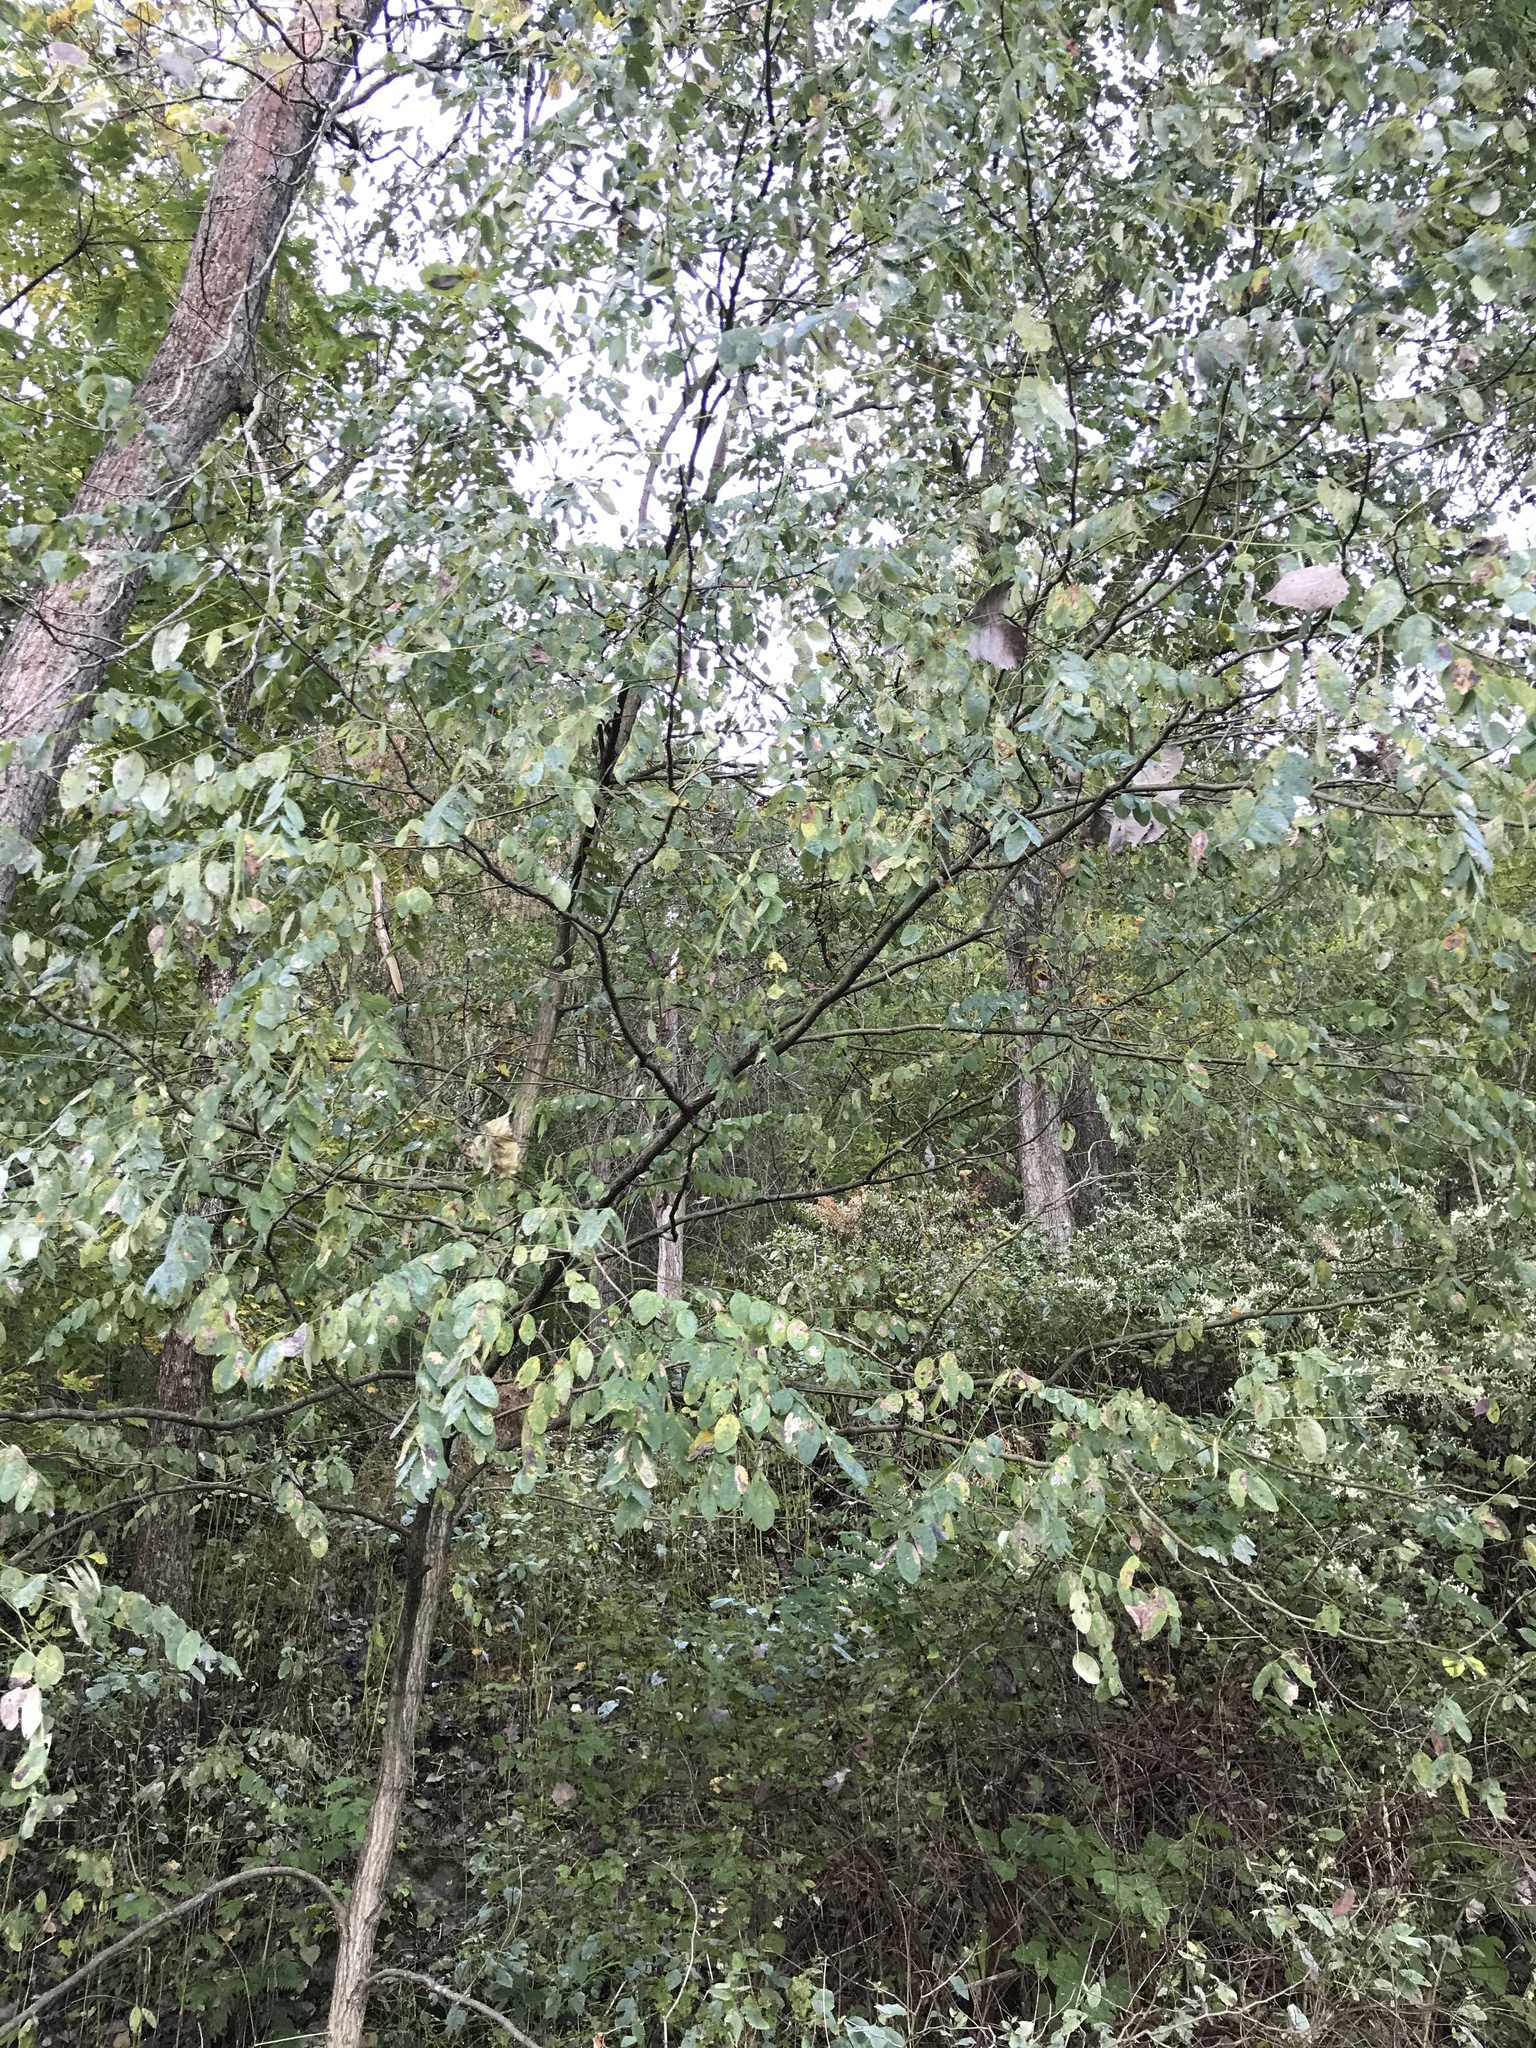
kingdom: Plantae
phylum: Tracheophyta
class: Magnoliopsida
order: Fabales
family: Fabaceae
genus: Robinia
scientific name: Robinia pseudoacacia
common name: Black locust
